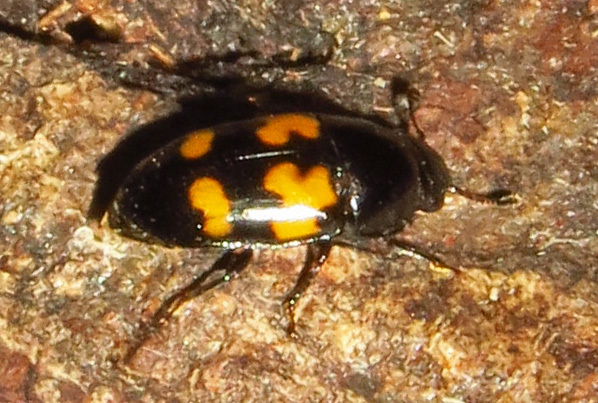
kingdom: Animalia
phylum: Arthropoda
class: Insecta
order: Coleoptera
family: Nitidulidae
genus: Glischrochilus
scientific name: Glischrochilus fasciatus
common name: Picnic beetle
